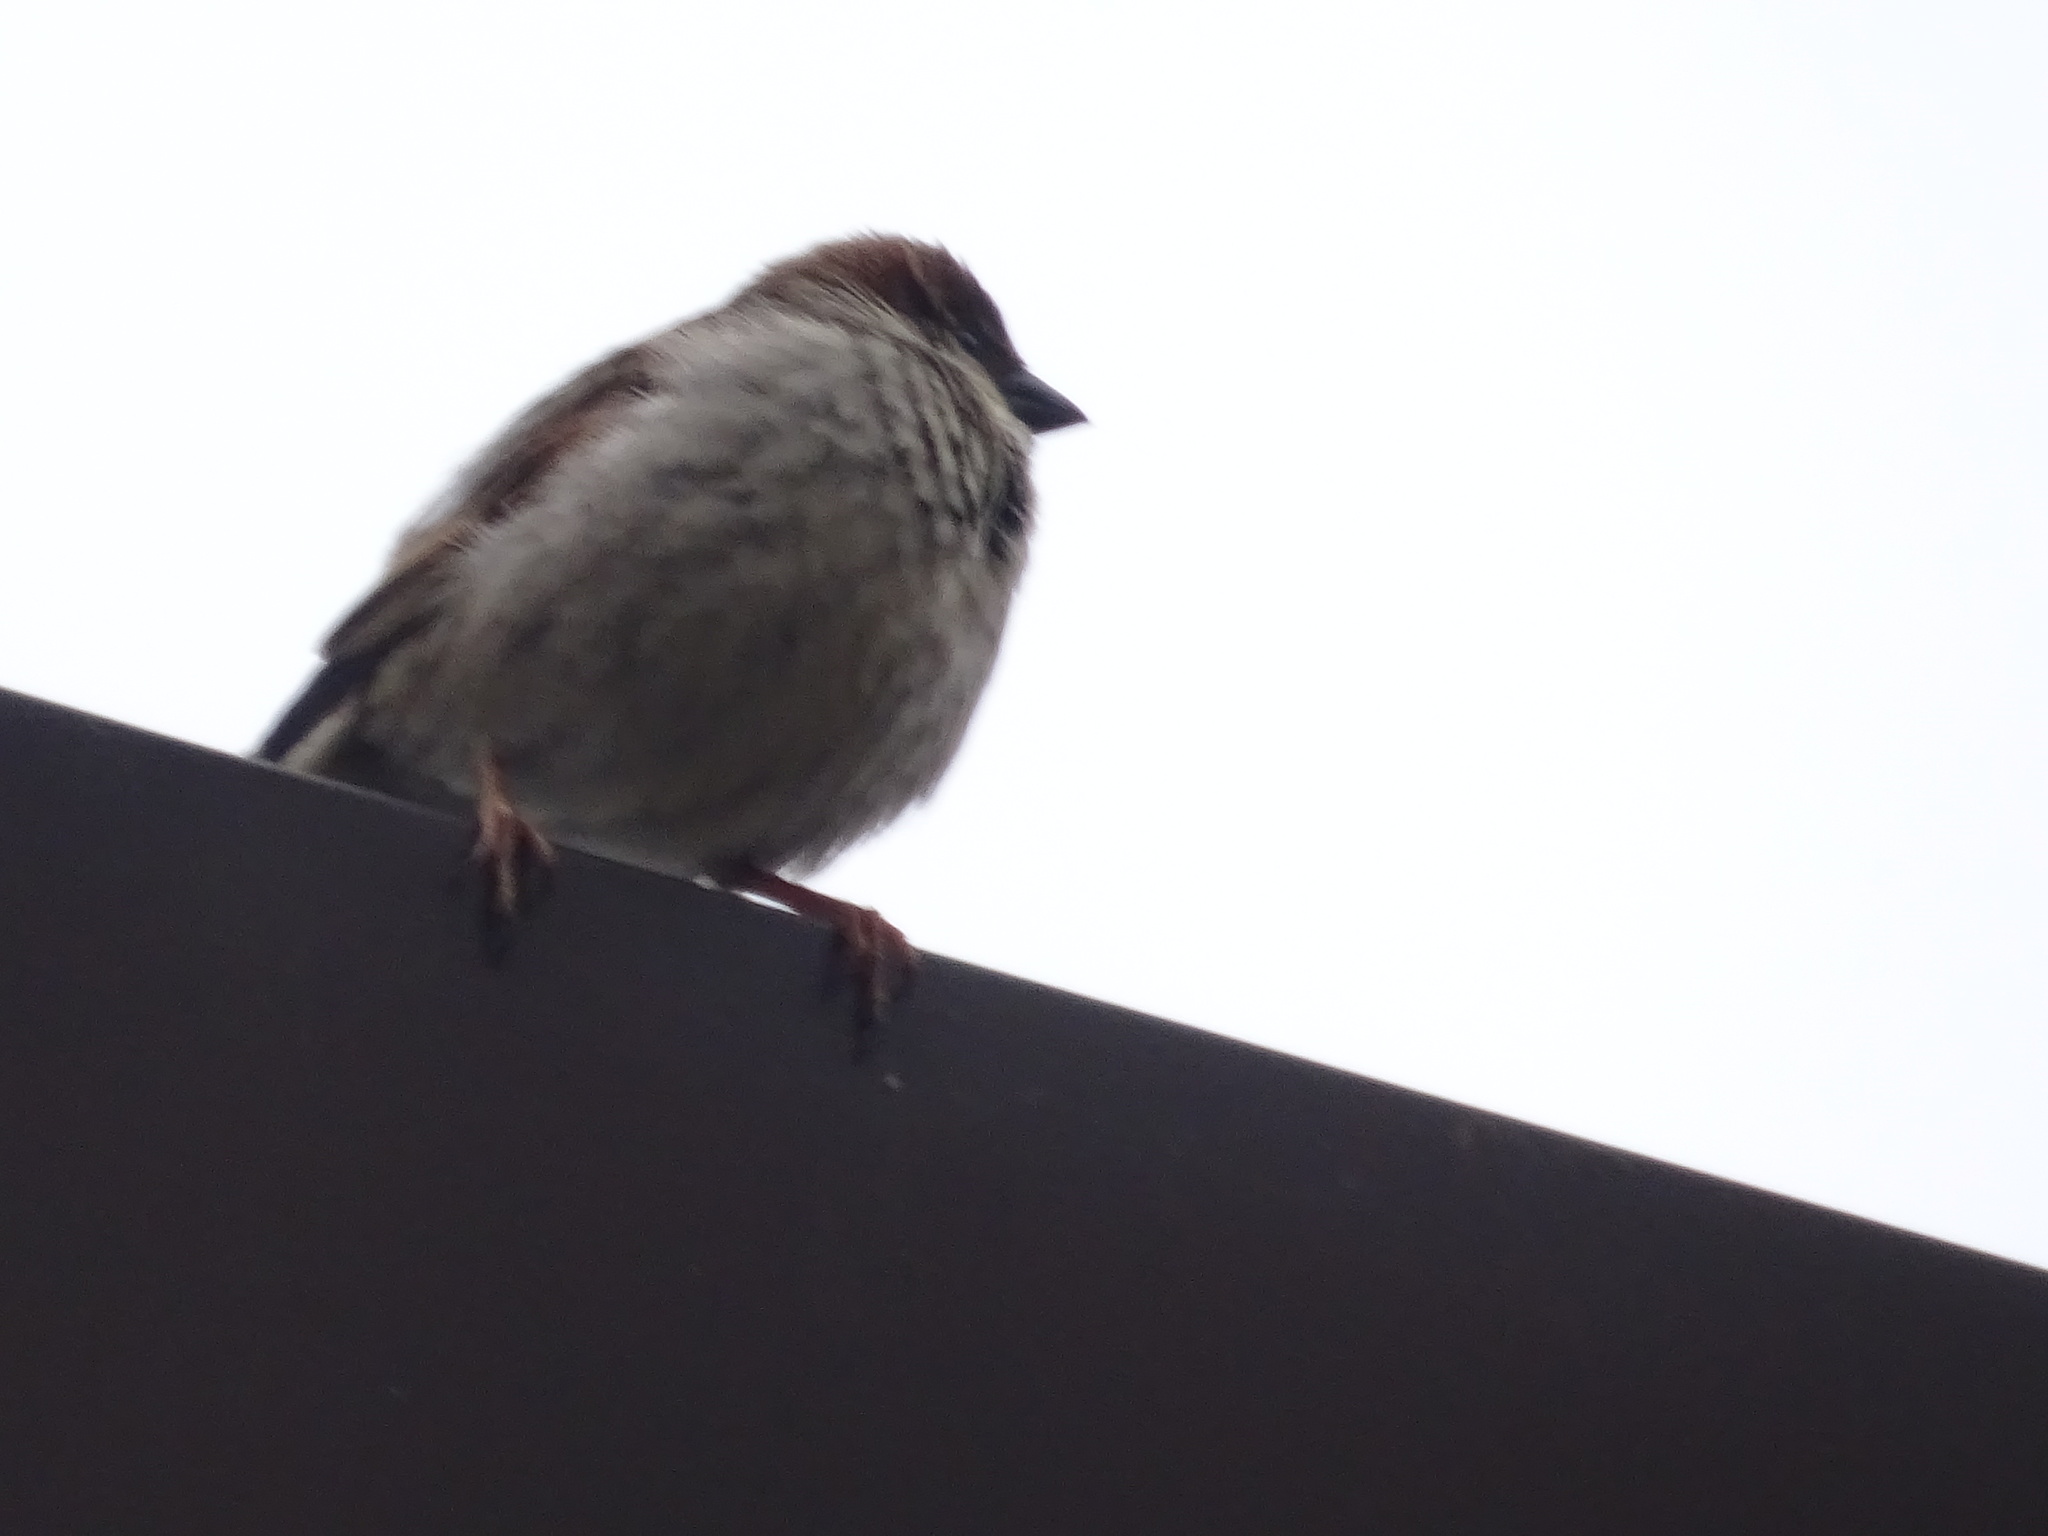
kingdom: Animalia
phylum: Chordata
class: Aves
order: Passeriformes
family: Passeridae
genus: Passer
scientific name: Passer domesticus
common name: House sparrow
